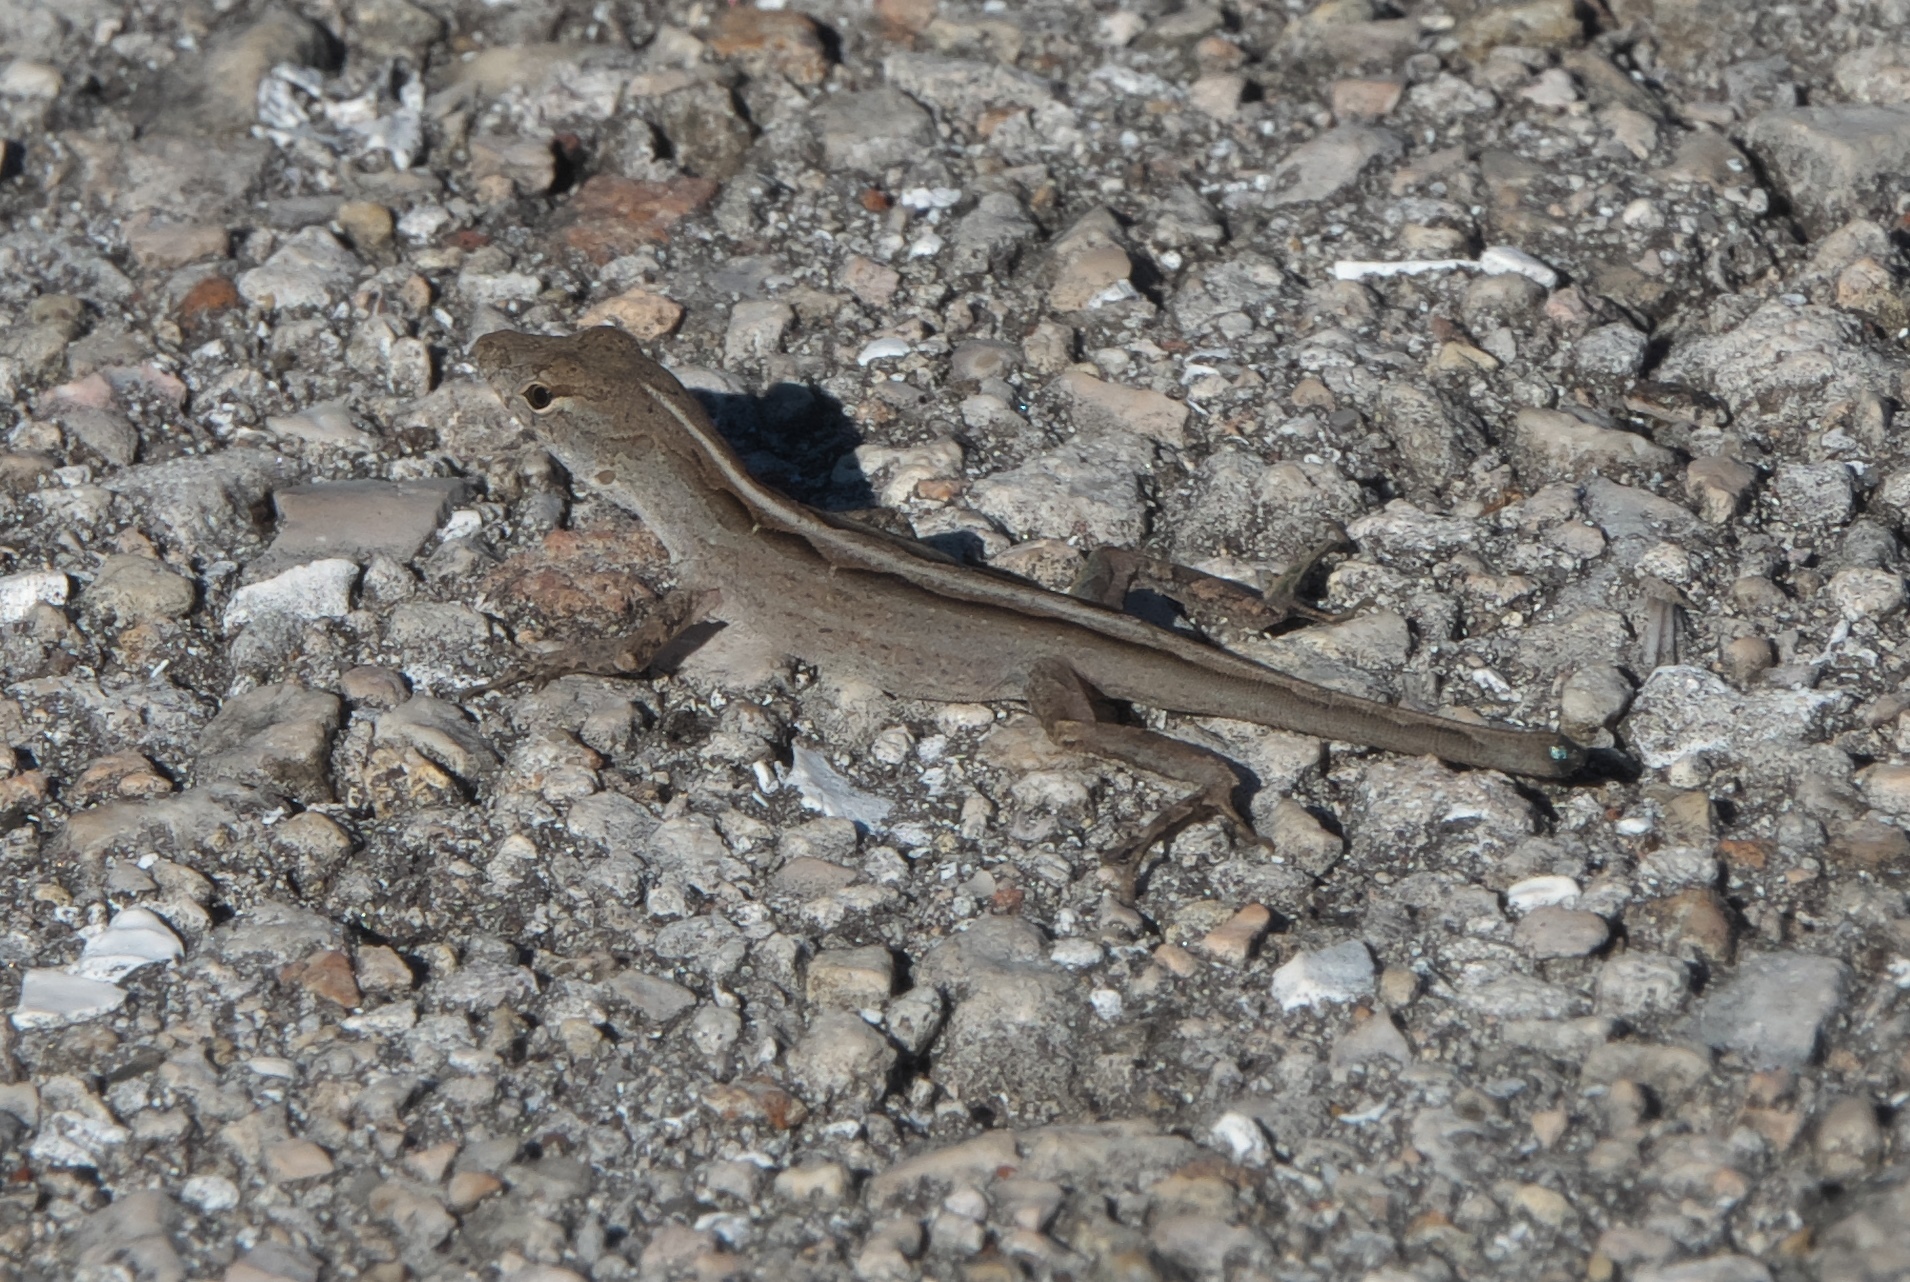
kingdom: Animalia
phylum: Chordata
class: Squamata
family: Dactyloidae
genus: Anolis
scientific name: Anolis sagrei
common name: Brown anole
